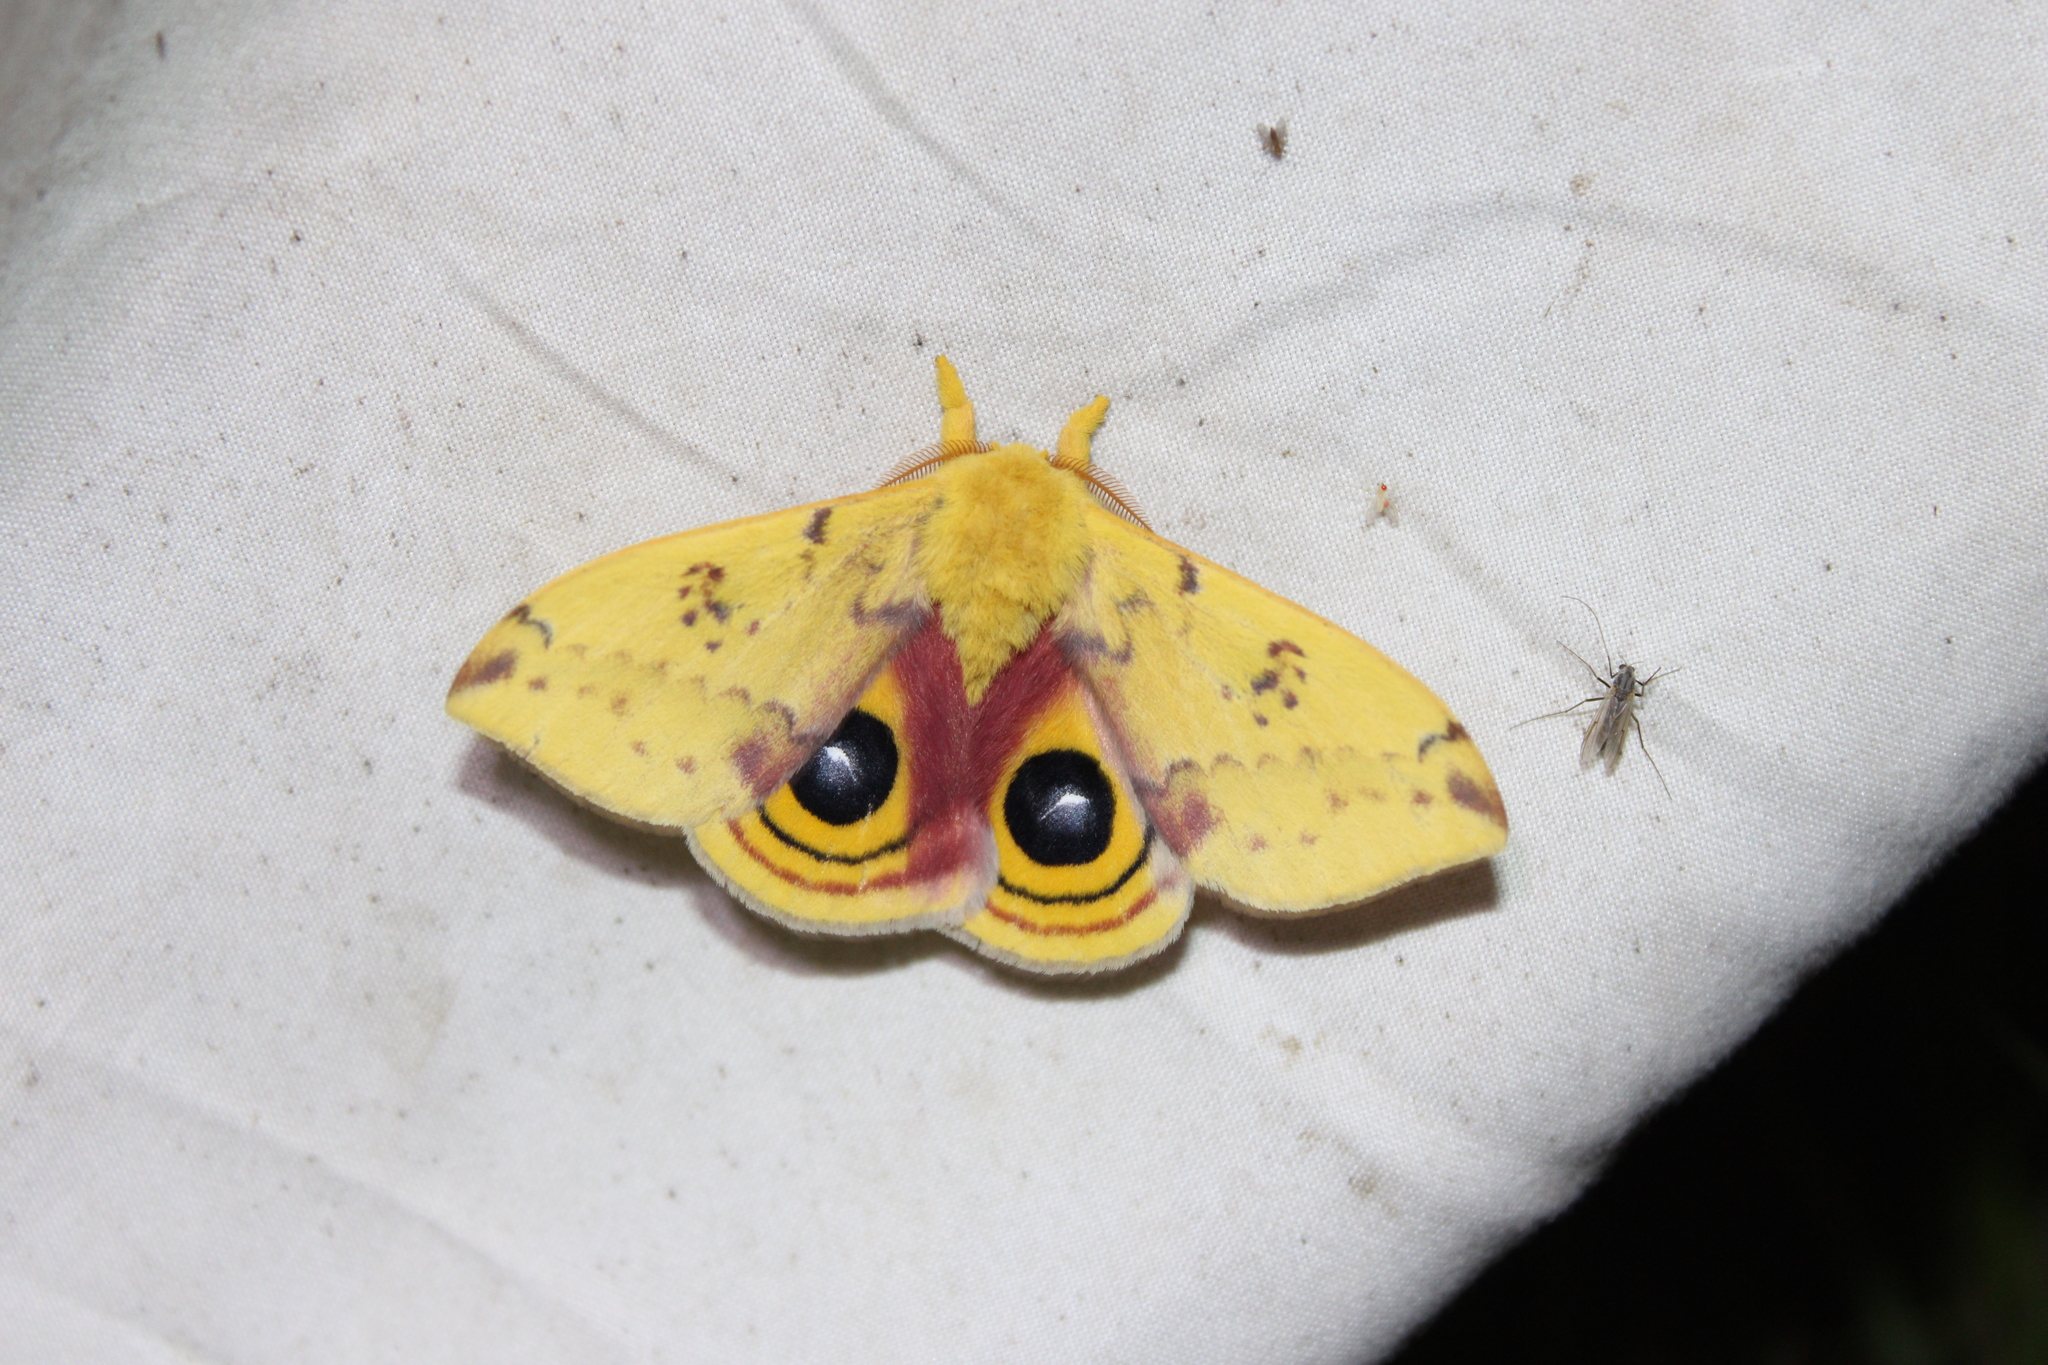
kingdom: Animalia
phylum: Arthropoda
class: Insecta
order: Lepidoptera
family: Saturniidae
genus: Automeris
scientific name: Automeris io
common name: Io moth
